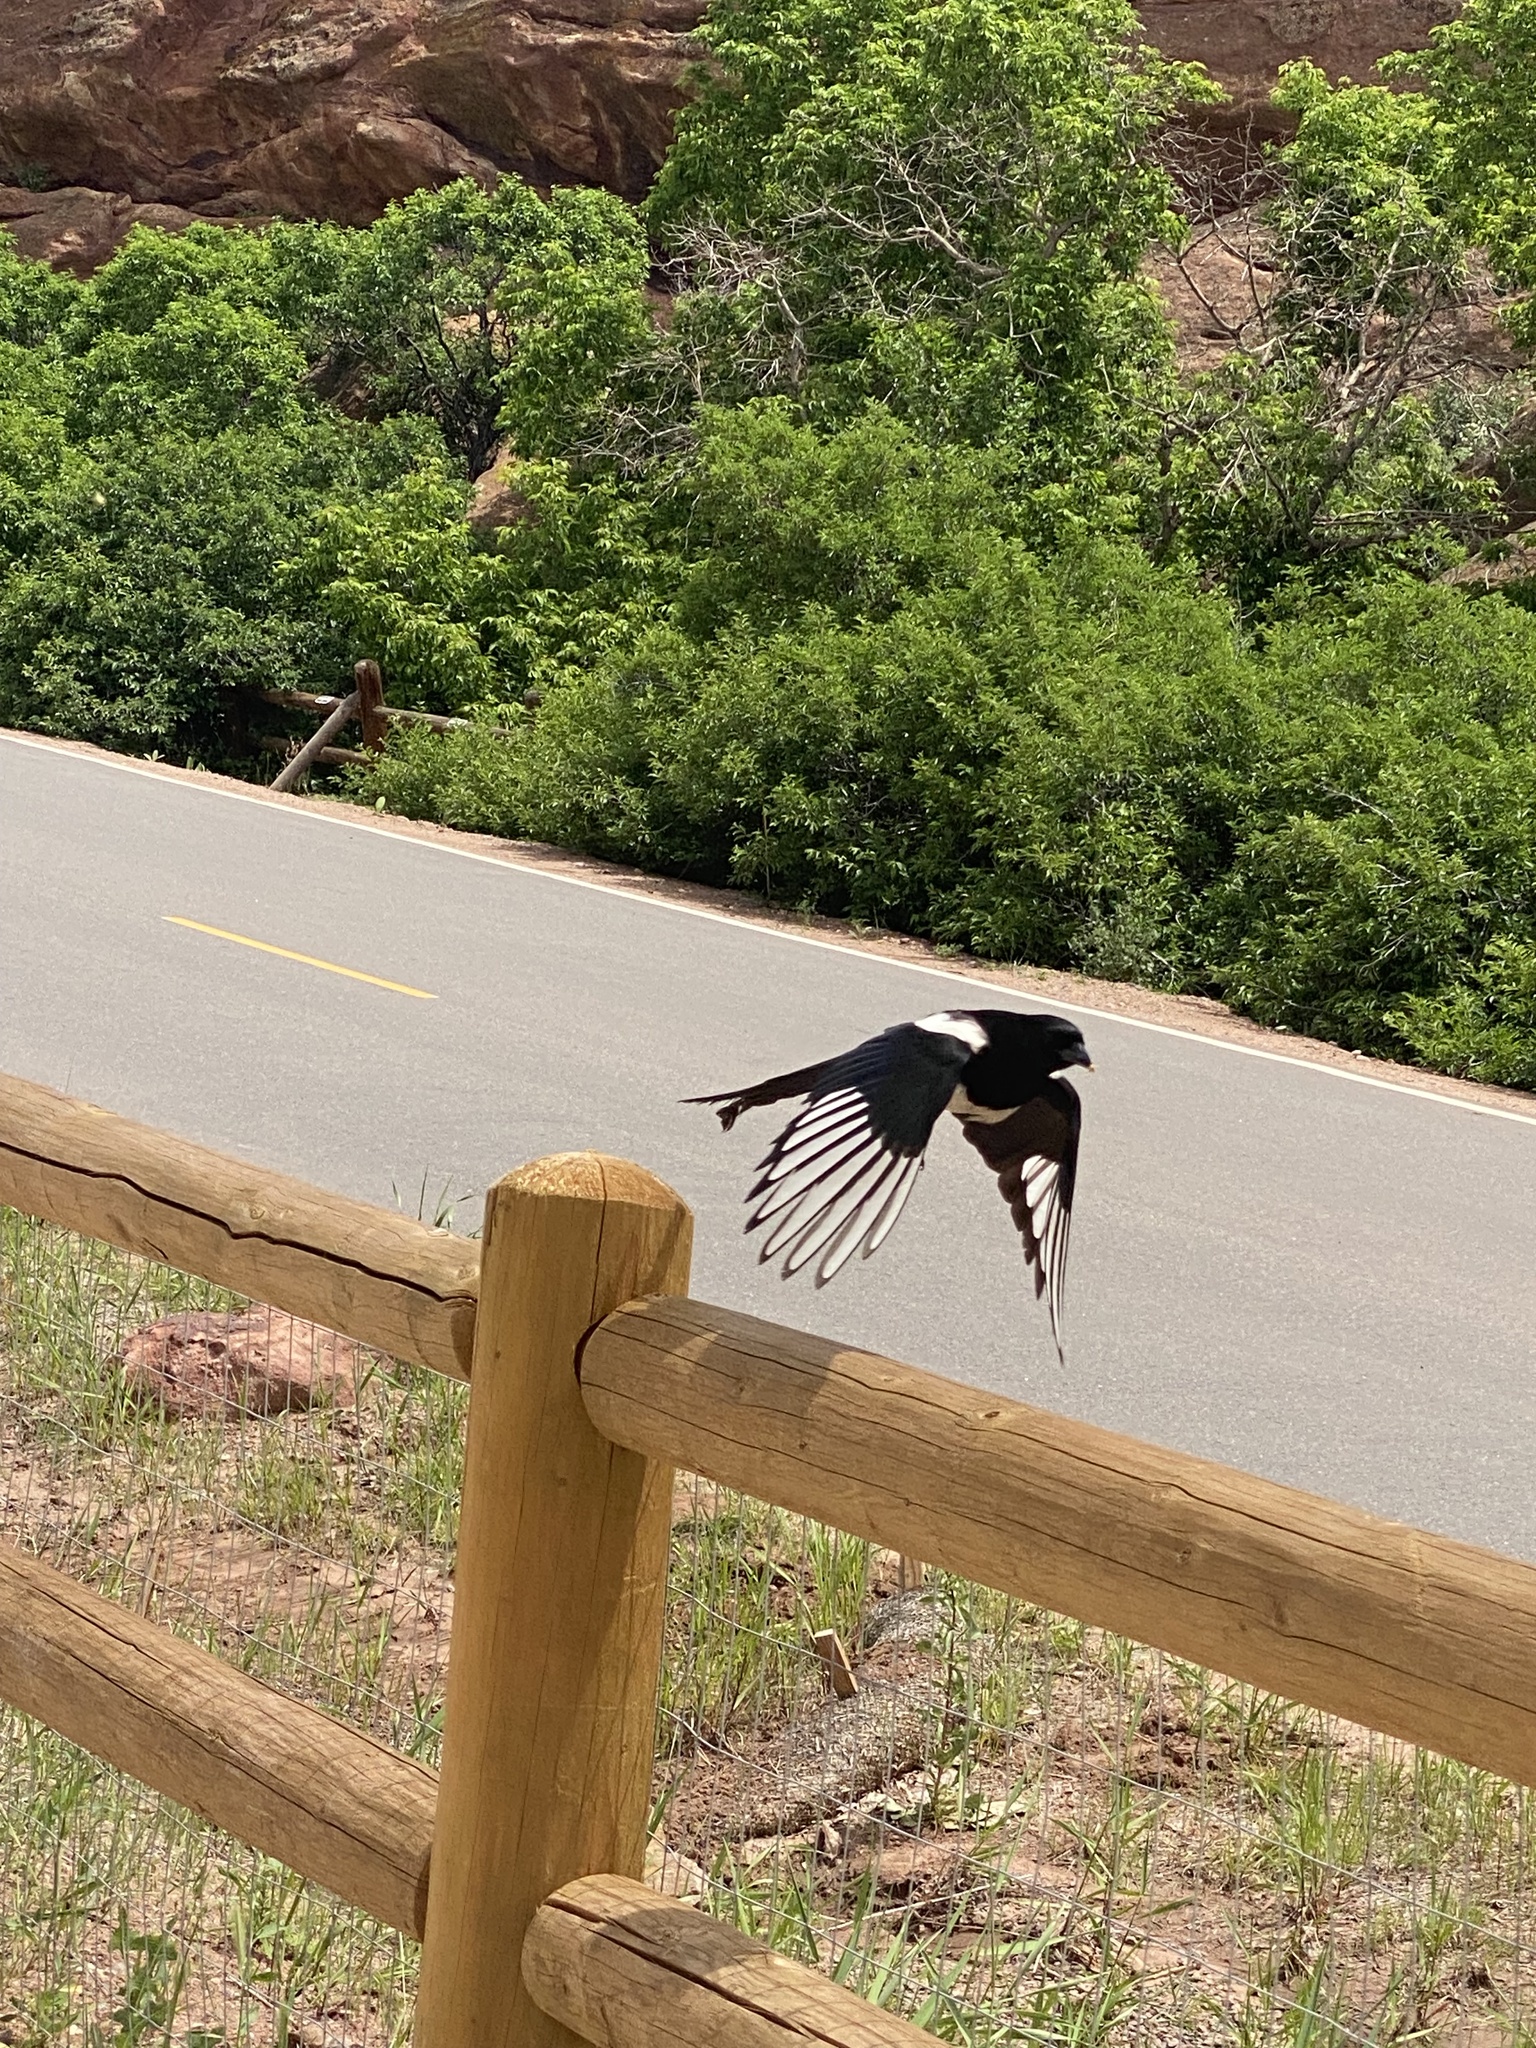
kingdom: Animalia
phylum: Chordata
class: Aves
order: Passeriformes
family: Corvidae
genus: Pica
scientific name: Pica hudsonia
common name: Black-billed magpie
